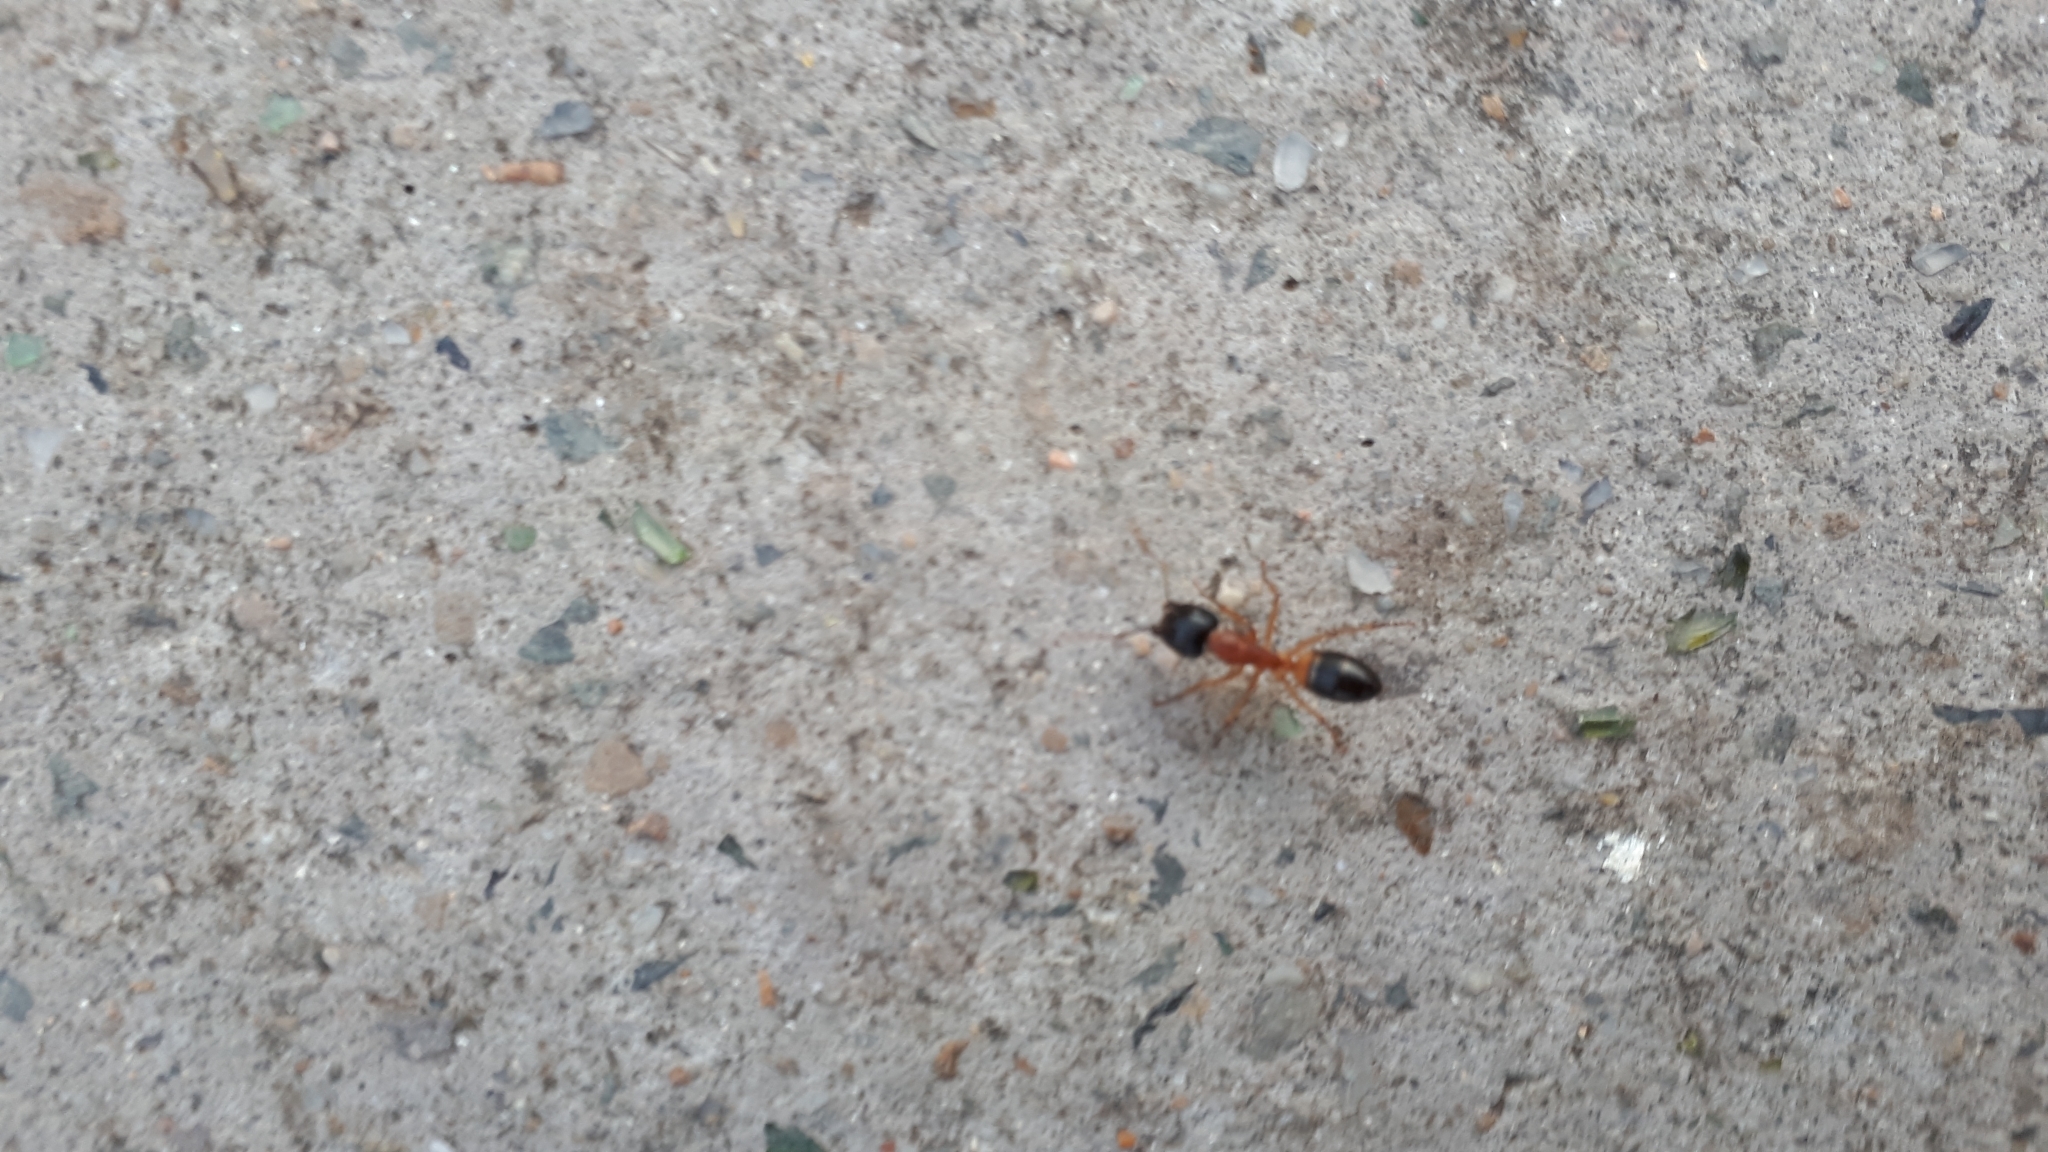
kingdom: Animalia
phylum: Arthropoda
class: Insecta
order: Hymenoptera
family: Formicidae
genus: Camponotus
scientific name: Camponotus consobrinus
